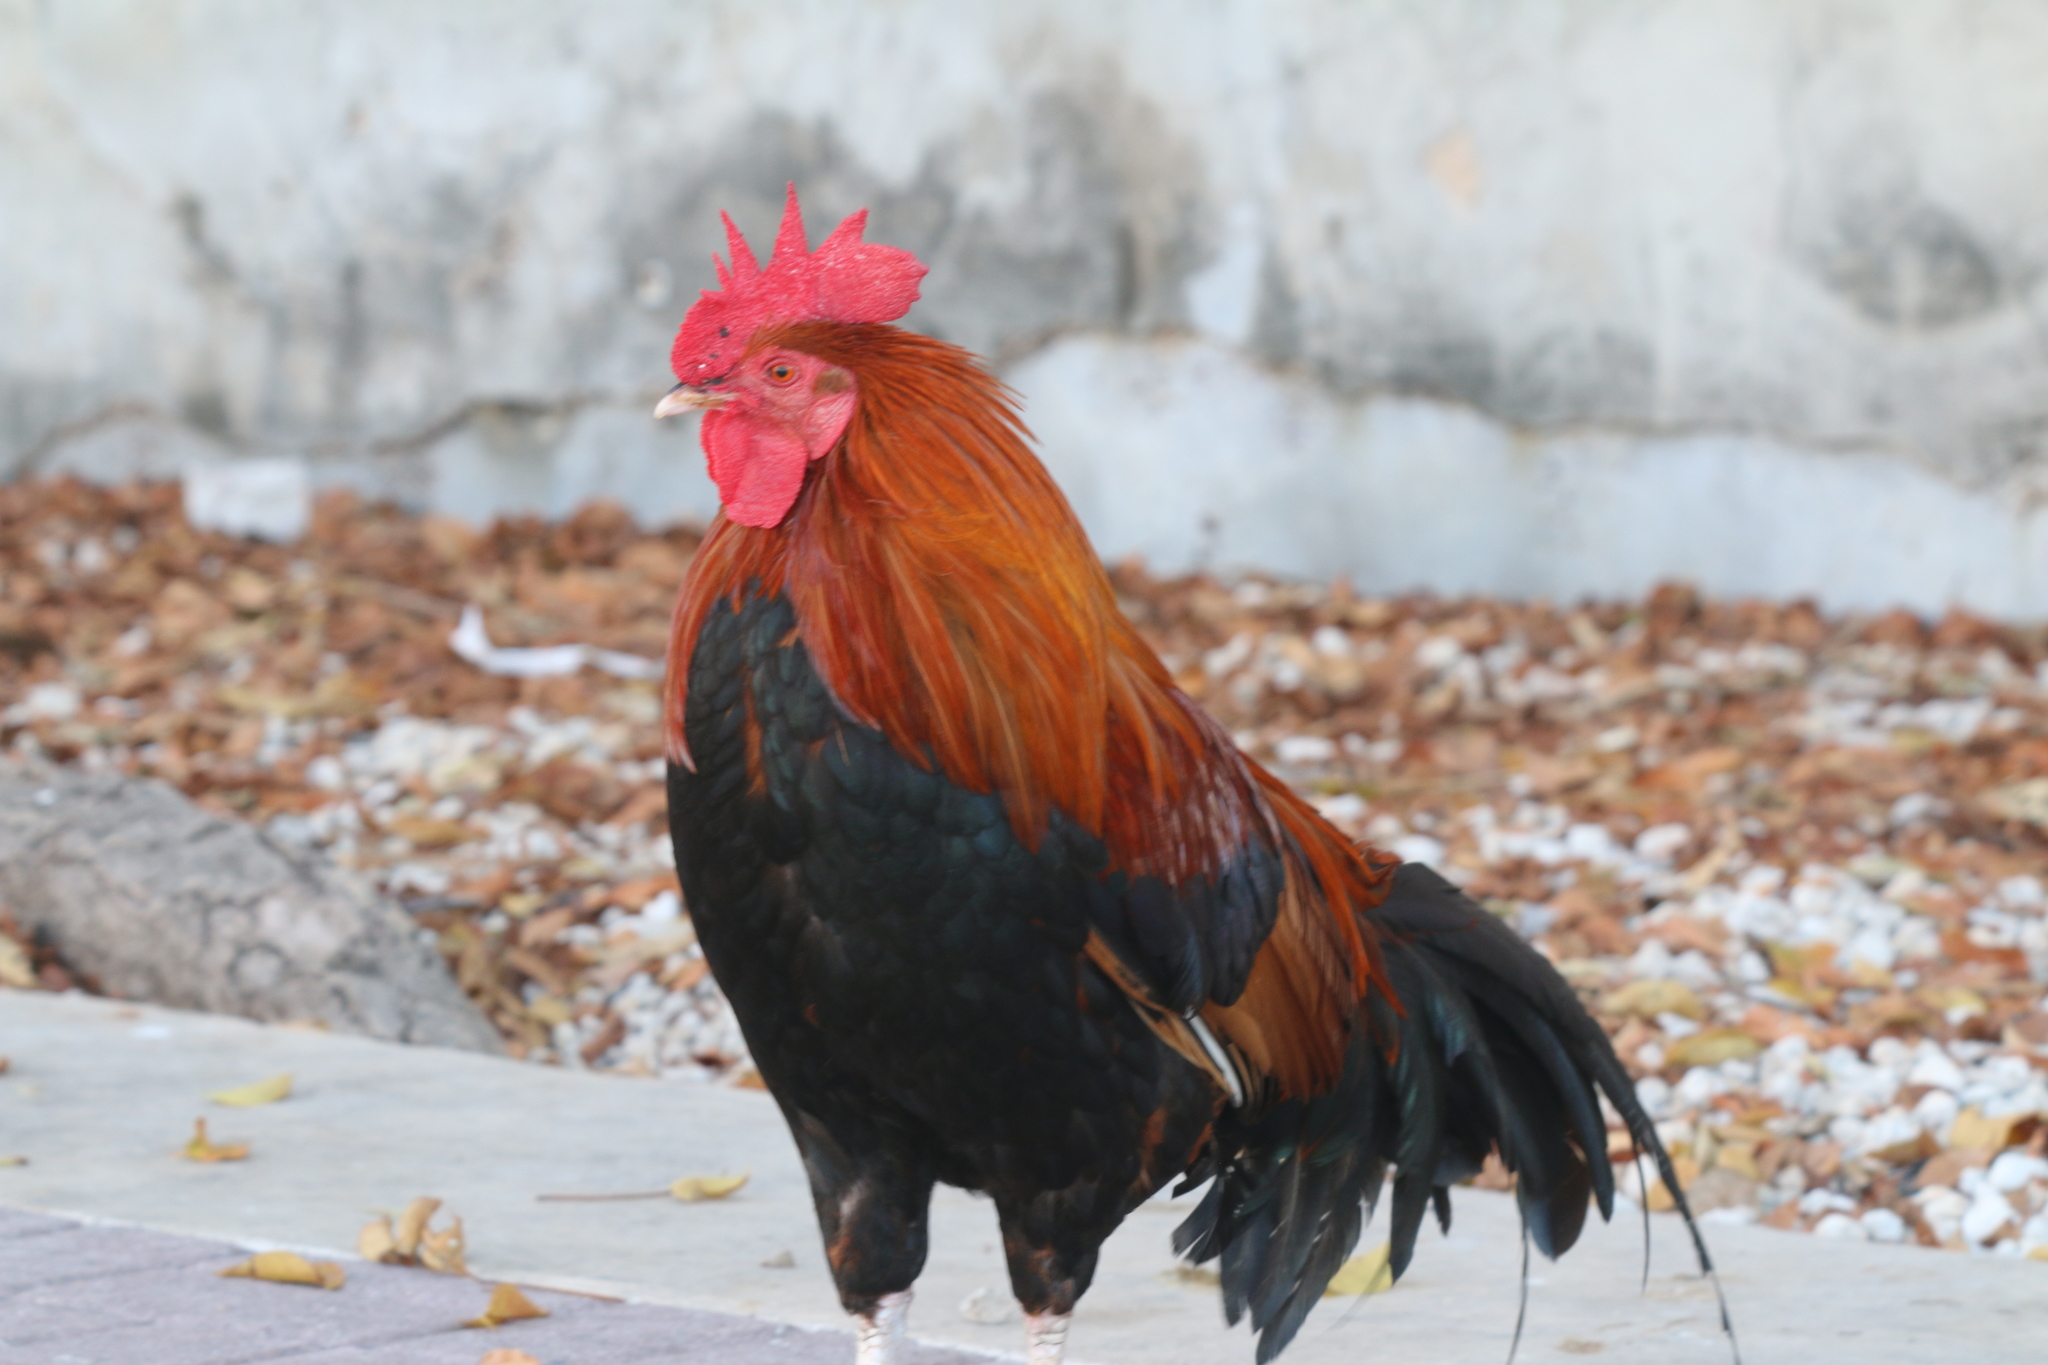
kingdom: Animalia
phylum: Chordata
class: Aves
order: Galliformes
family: Phasianidae
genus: Gallus
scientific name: Gallus gallus
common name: Red junglefowl
